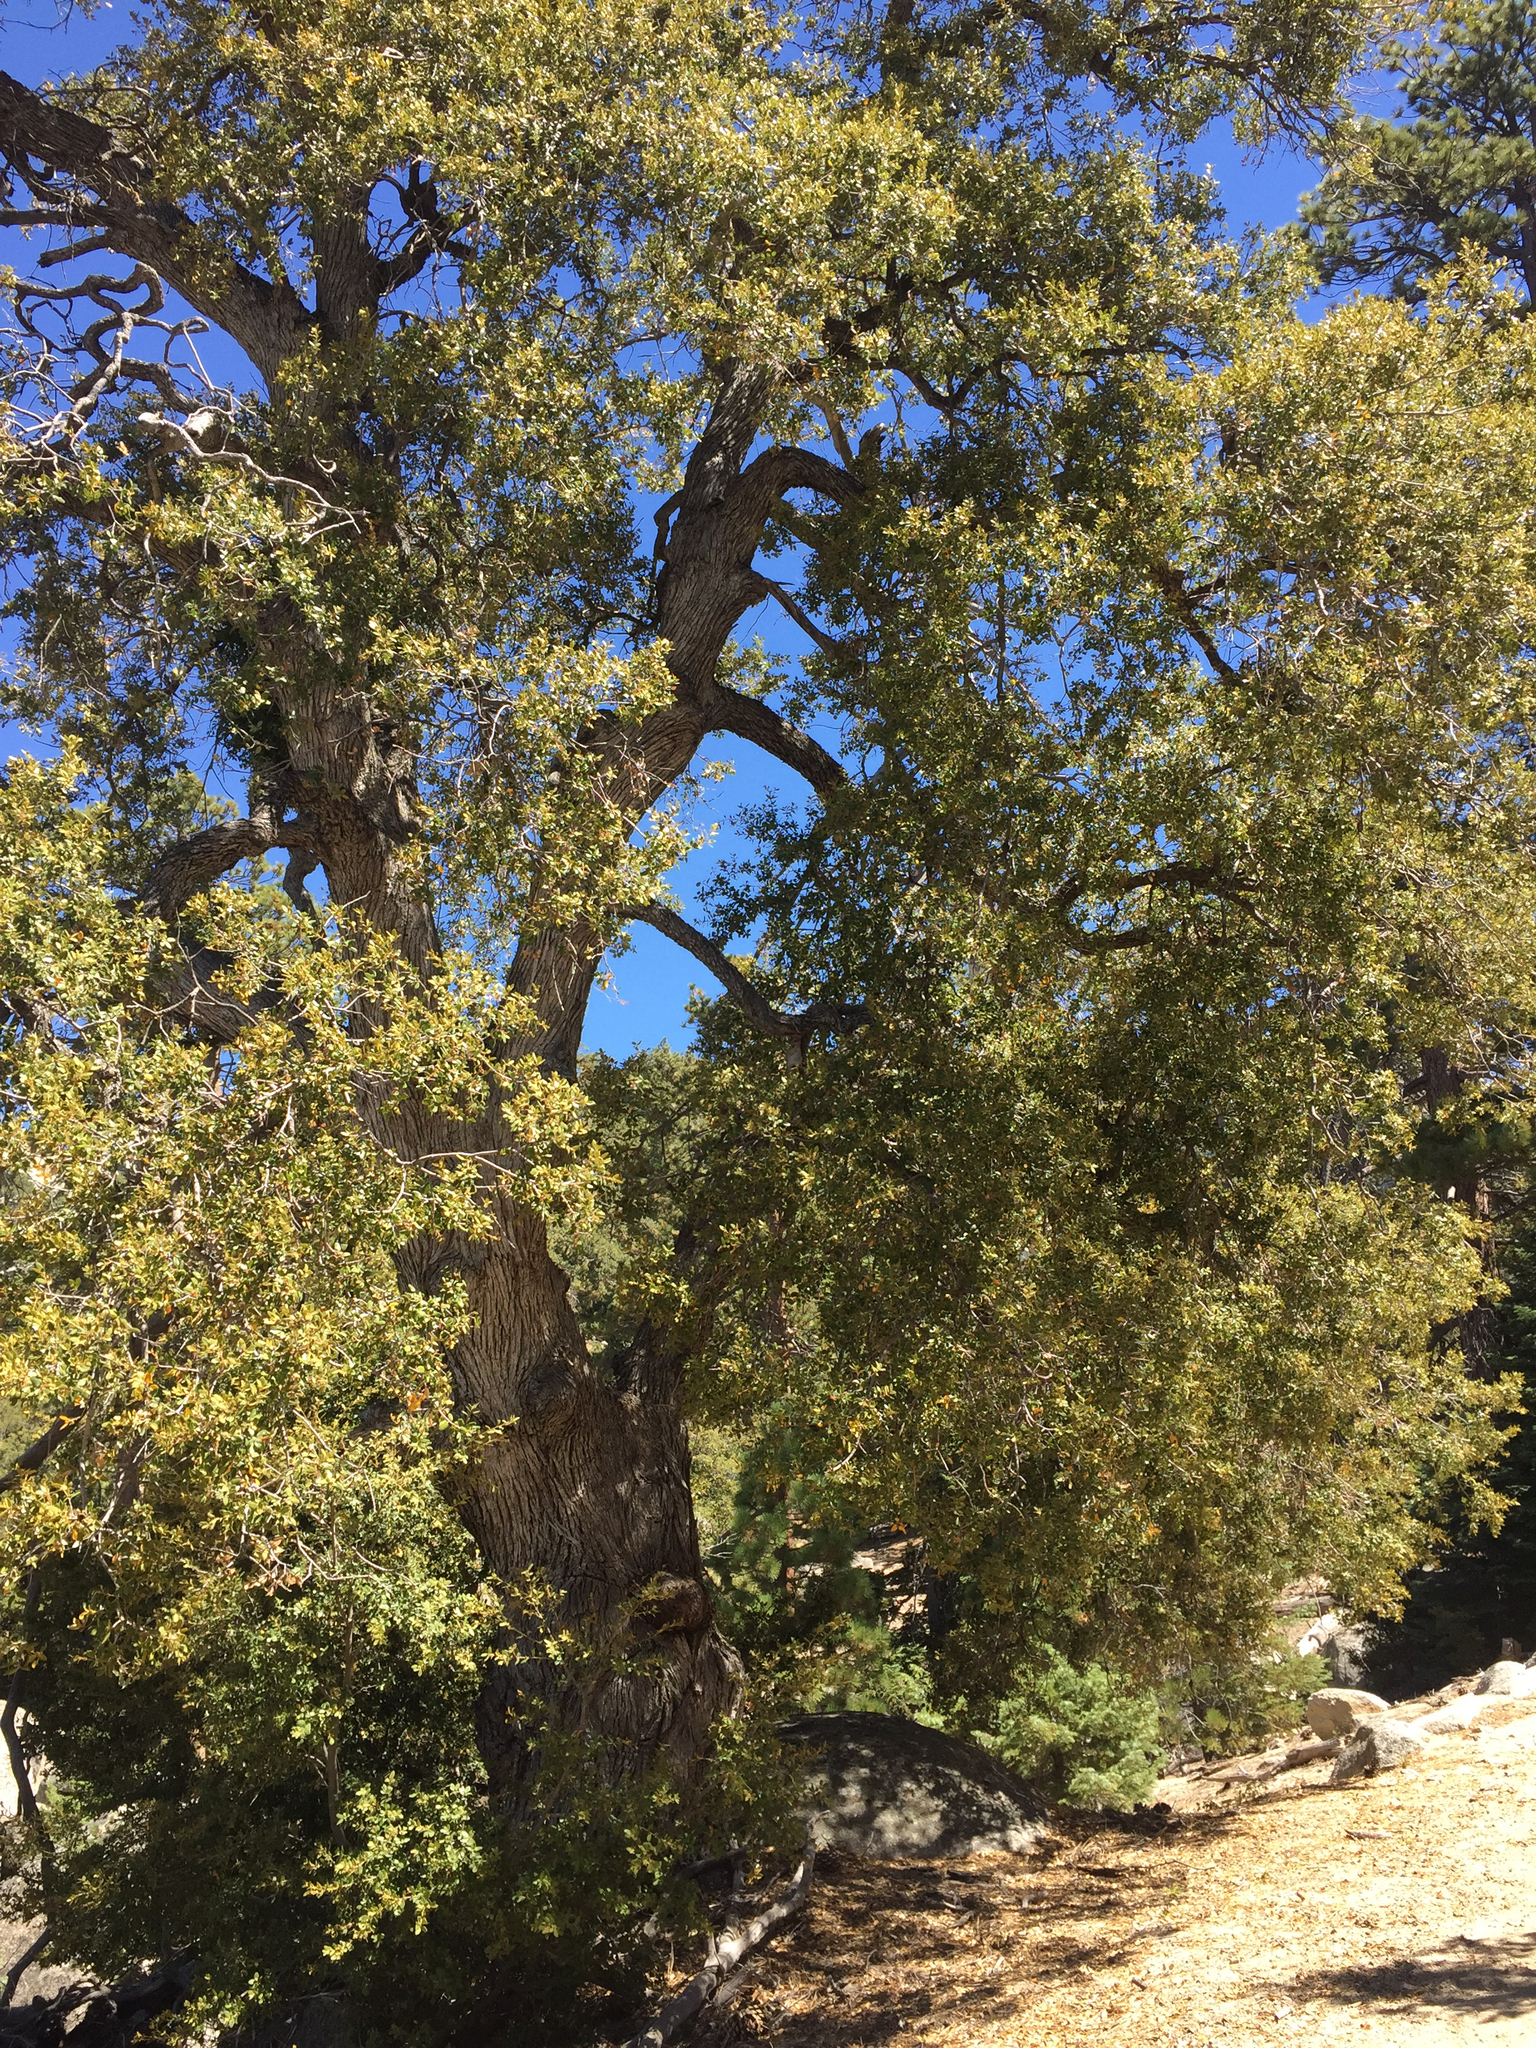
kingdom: Plantae
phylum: Tracheophyta
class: Magnoliopsida
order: Fagales
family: Fagaceae
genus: Quercus
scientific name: Quercus chrysolepis
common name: Canyon live oak
